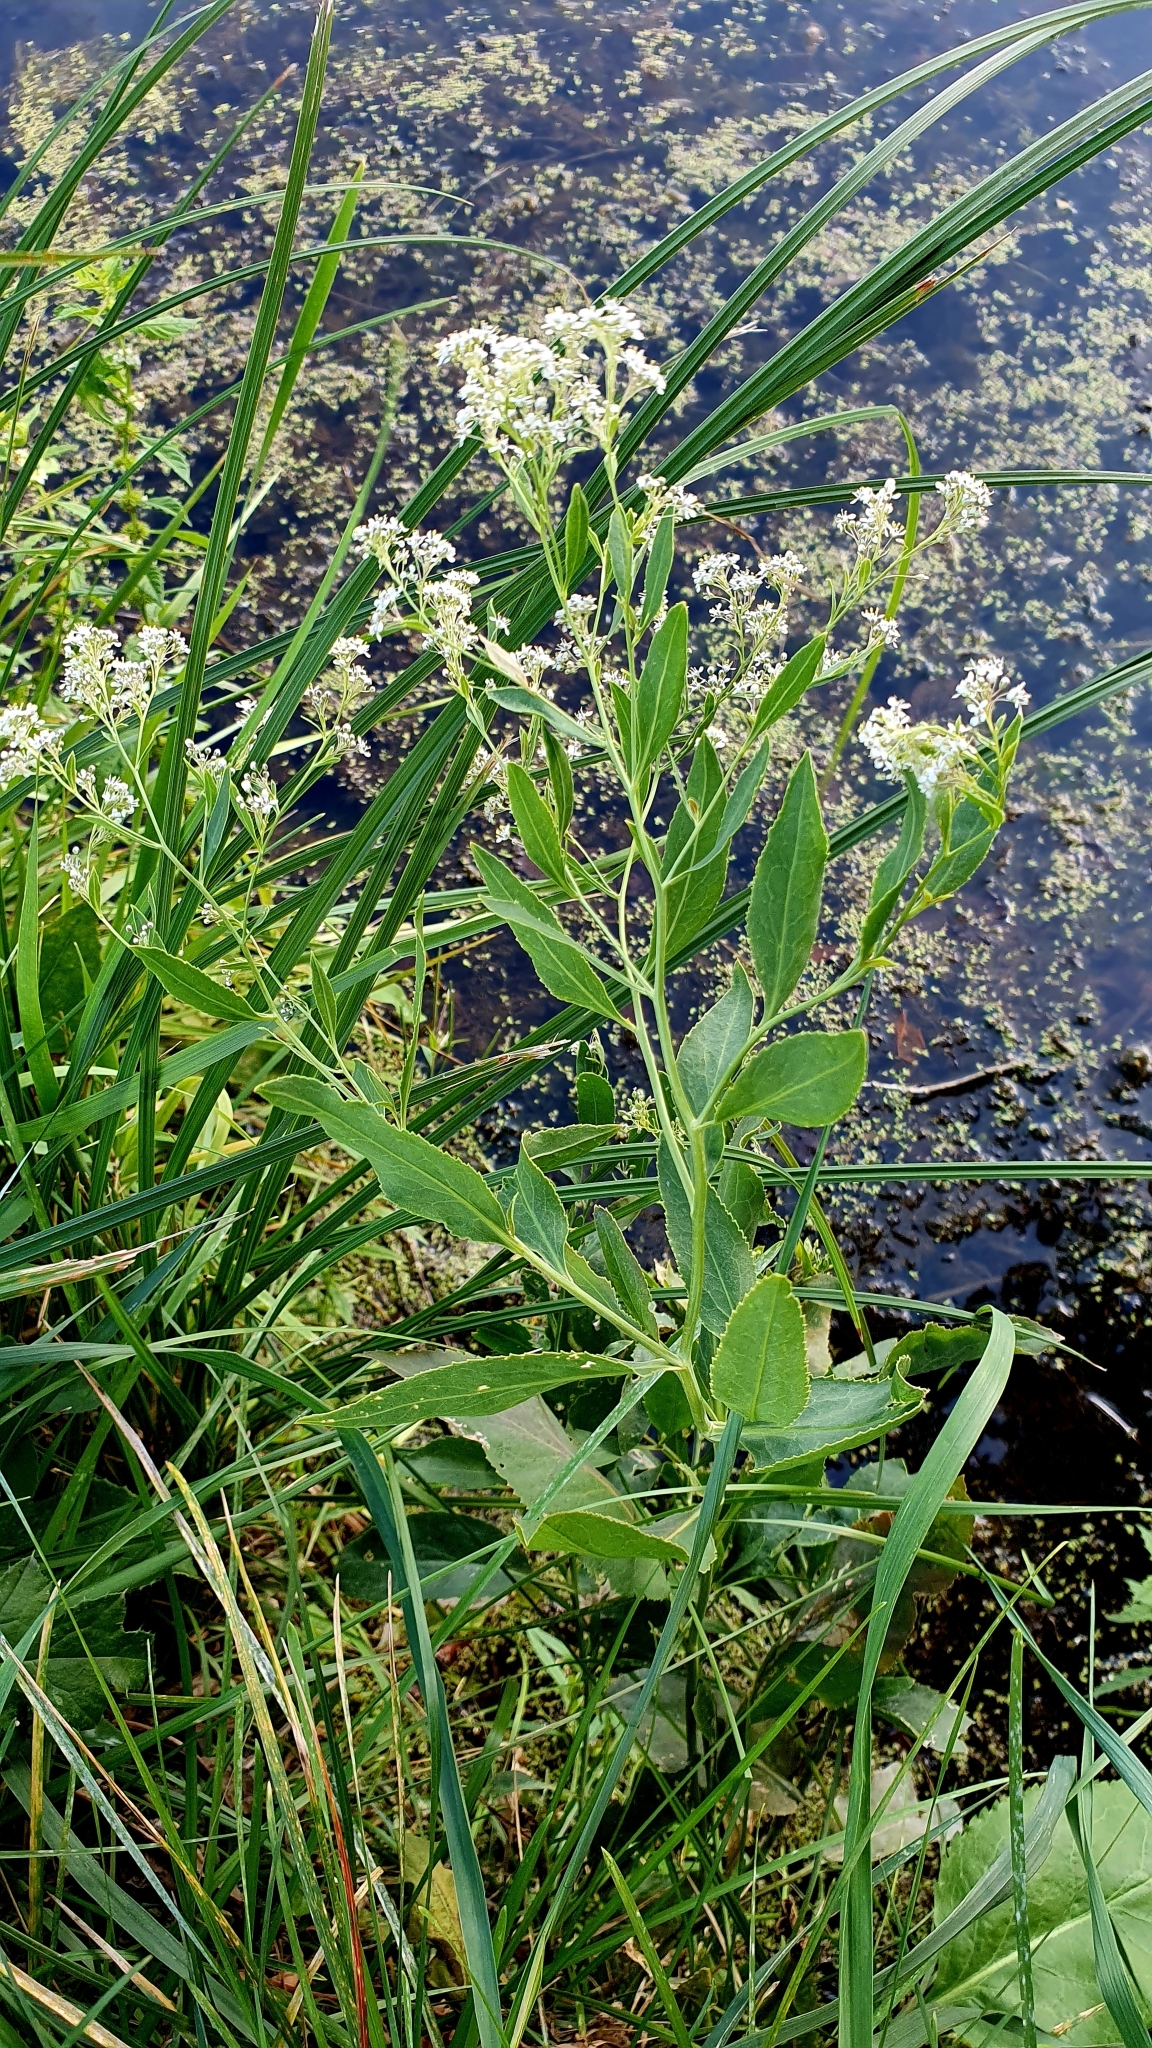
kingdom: Plantae
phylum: Tracheophyta
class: Magnoliopsida
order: Brassicales
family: Brassicaceae
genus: Lepidium
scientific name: Lepidium latifolium
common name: Dittander
